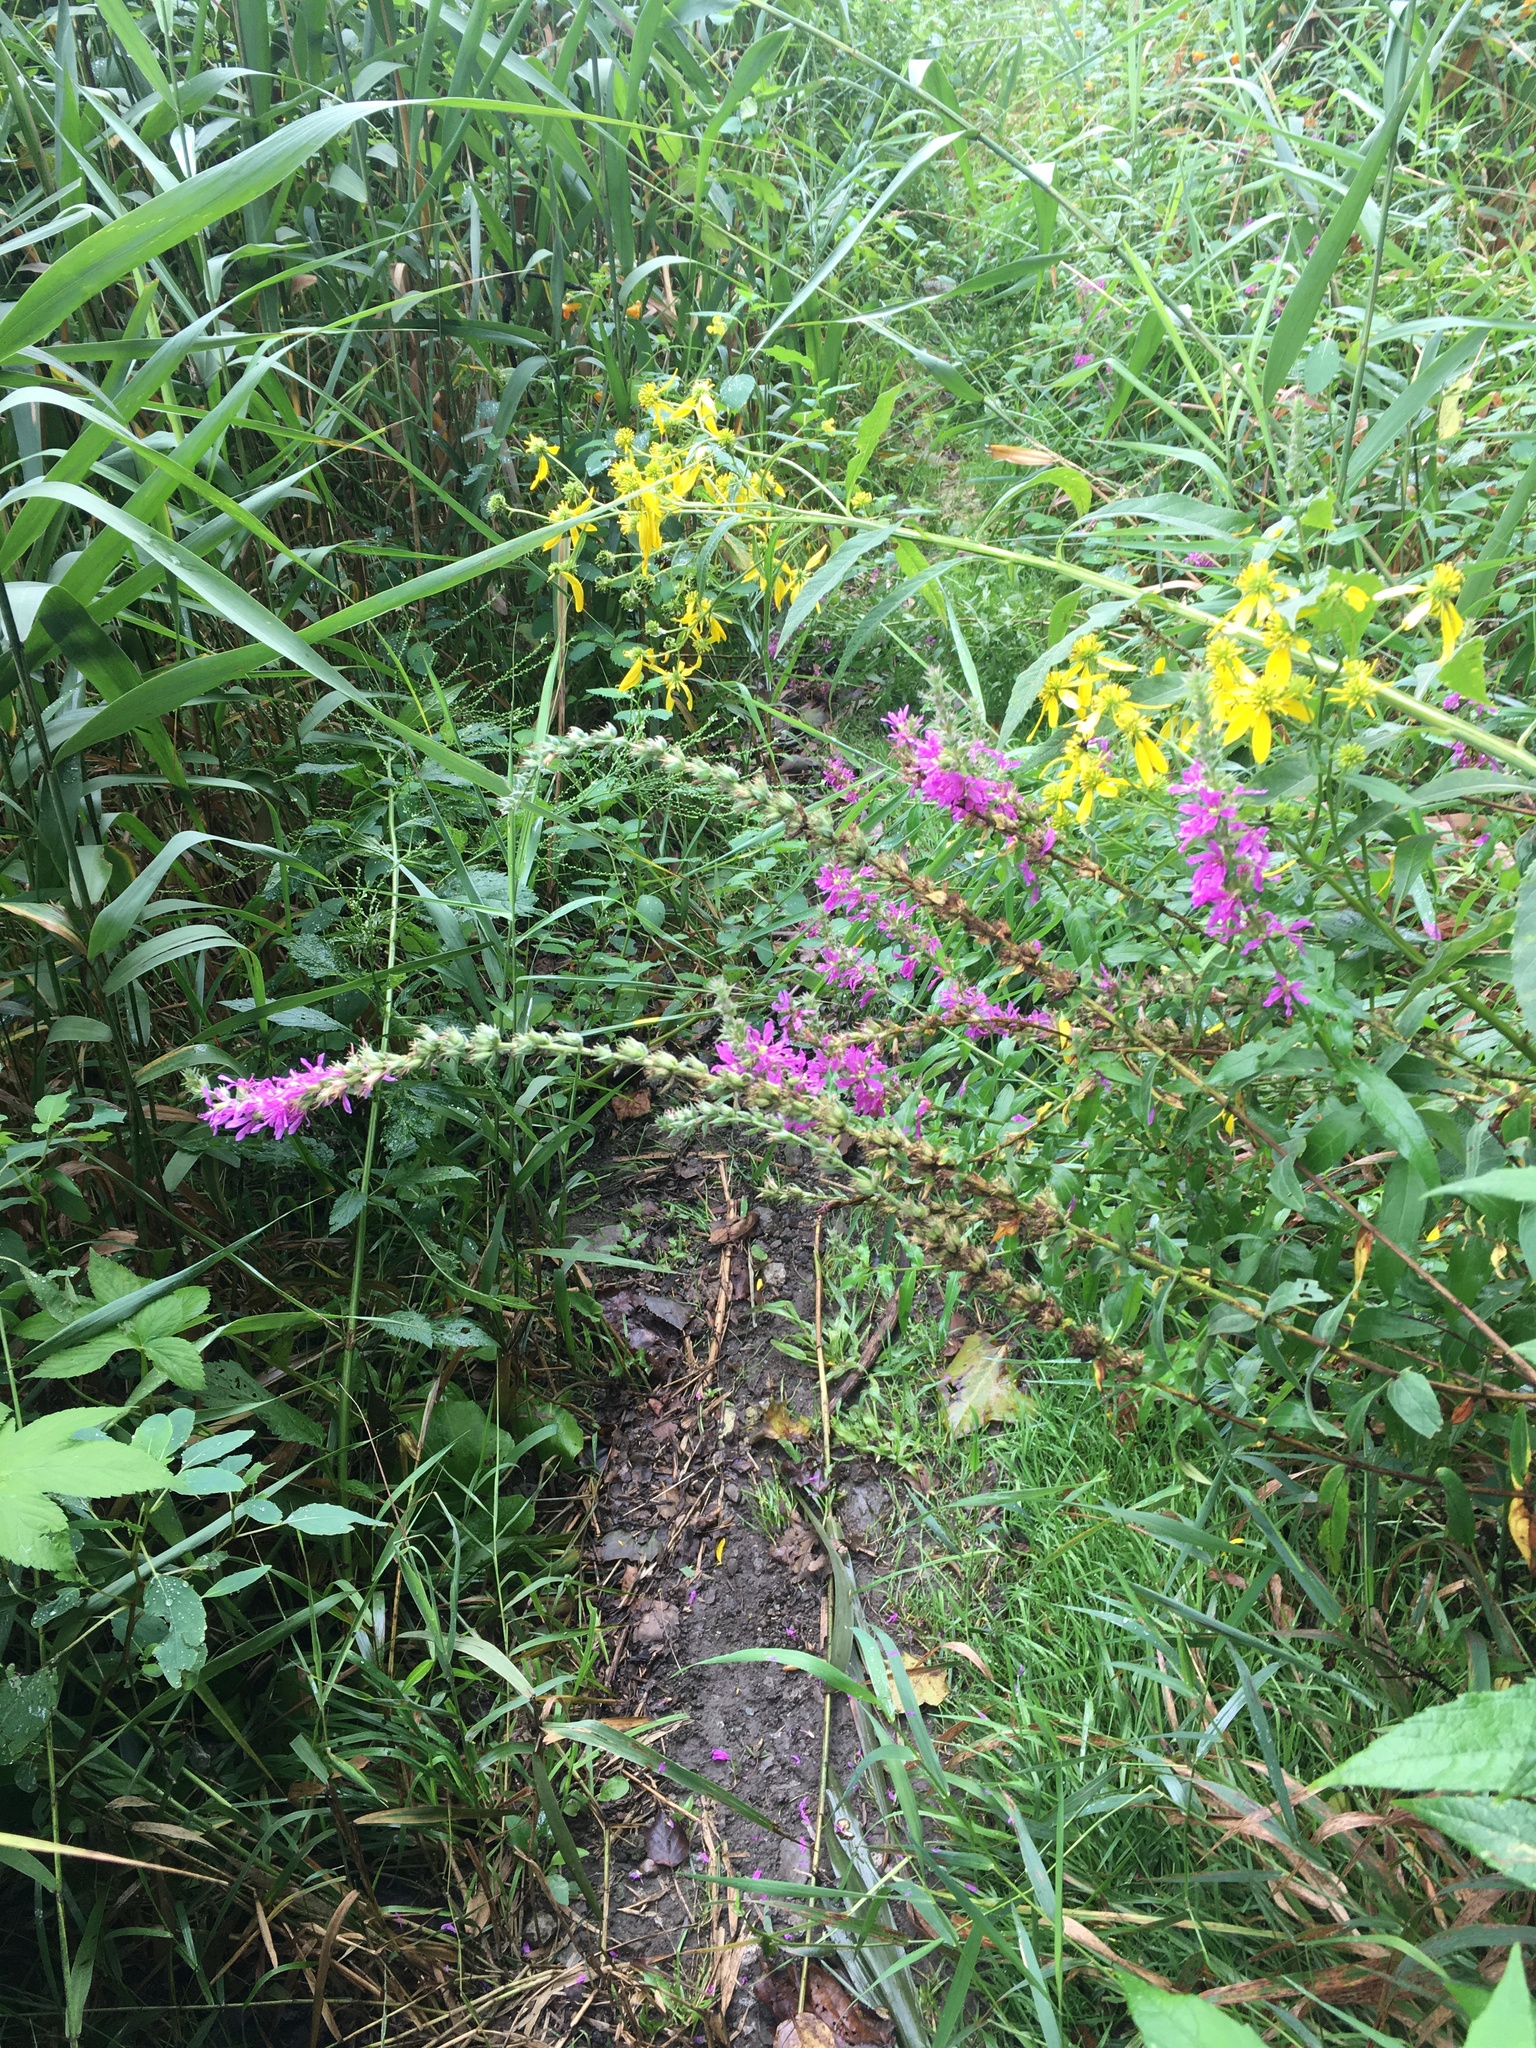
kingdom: Plantae
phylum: Tracheophyta
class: Magnoliopsida
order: Myrtales
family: Lythraceae
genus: Lythrum
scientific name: Lythrum salicaria
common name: Purple loosestrife
